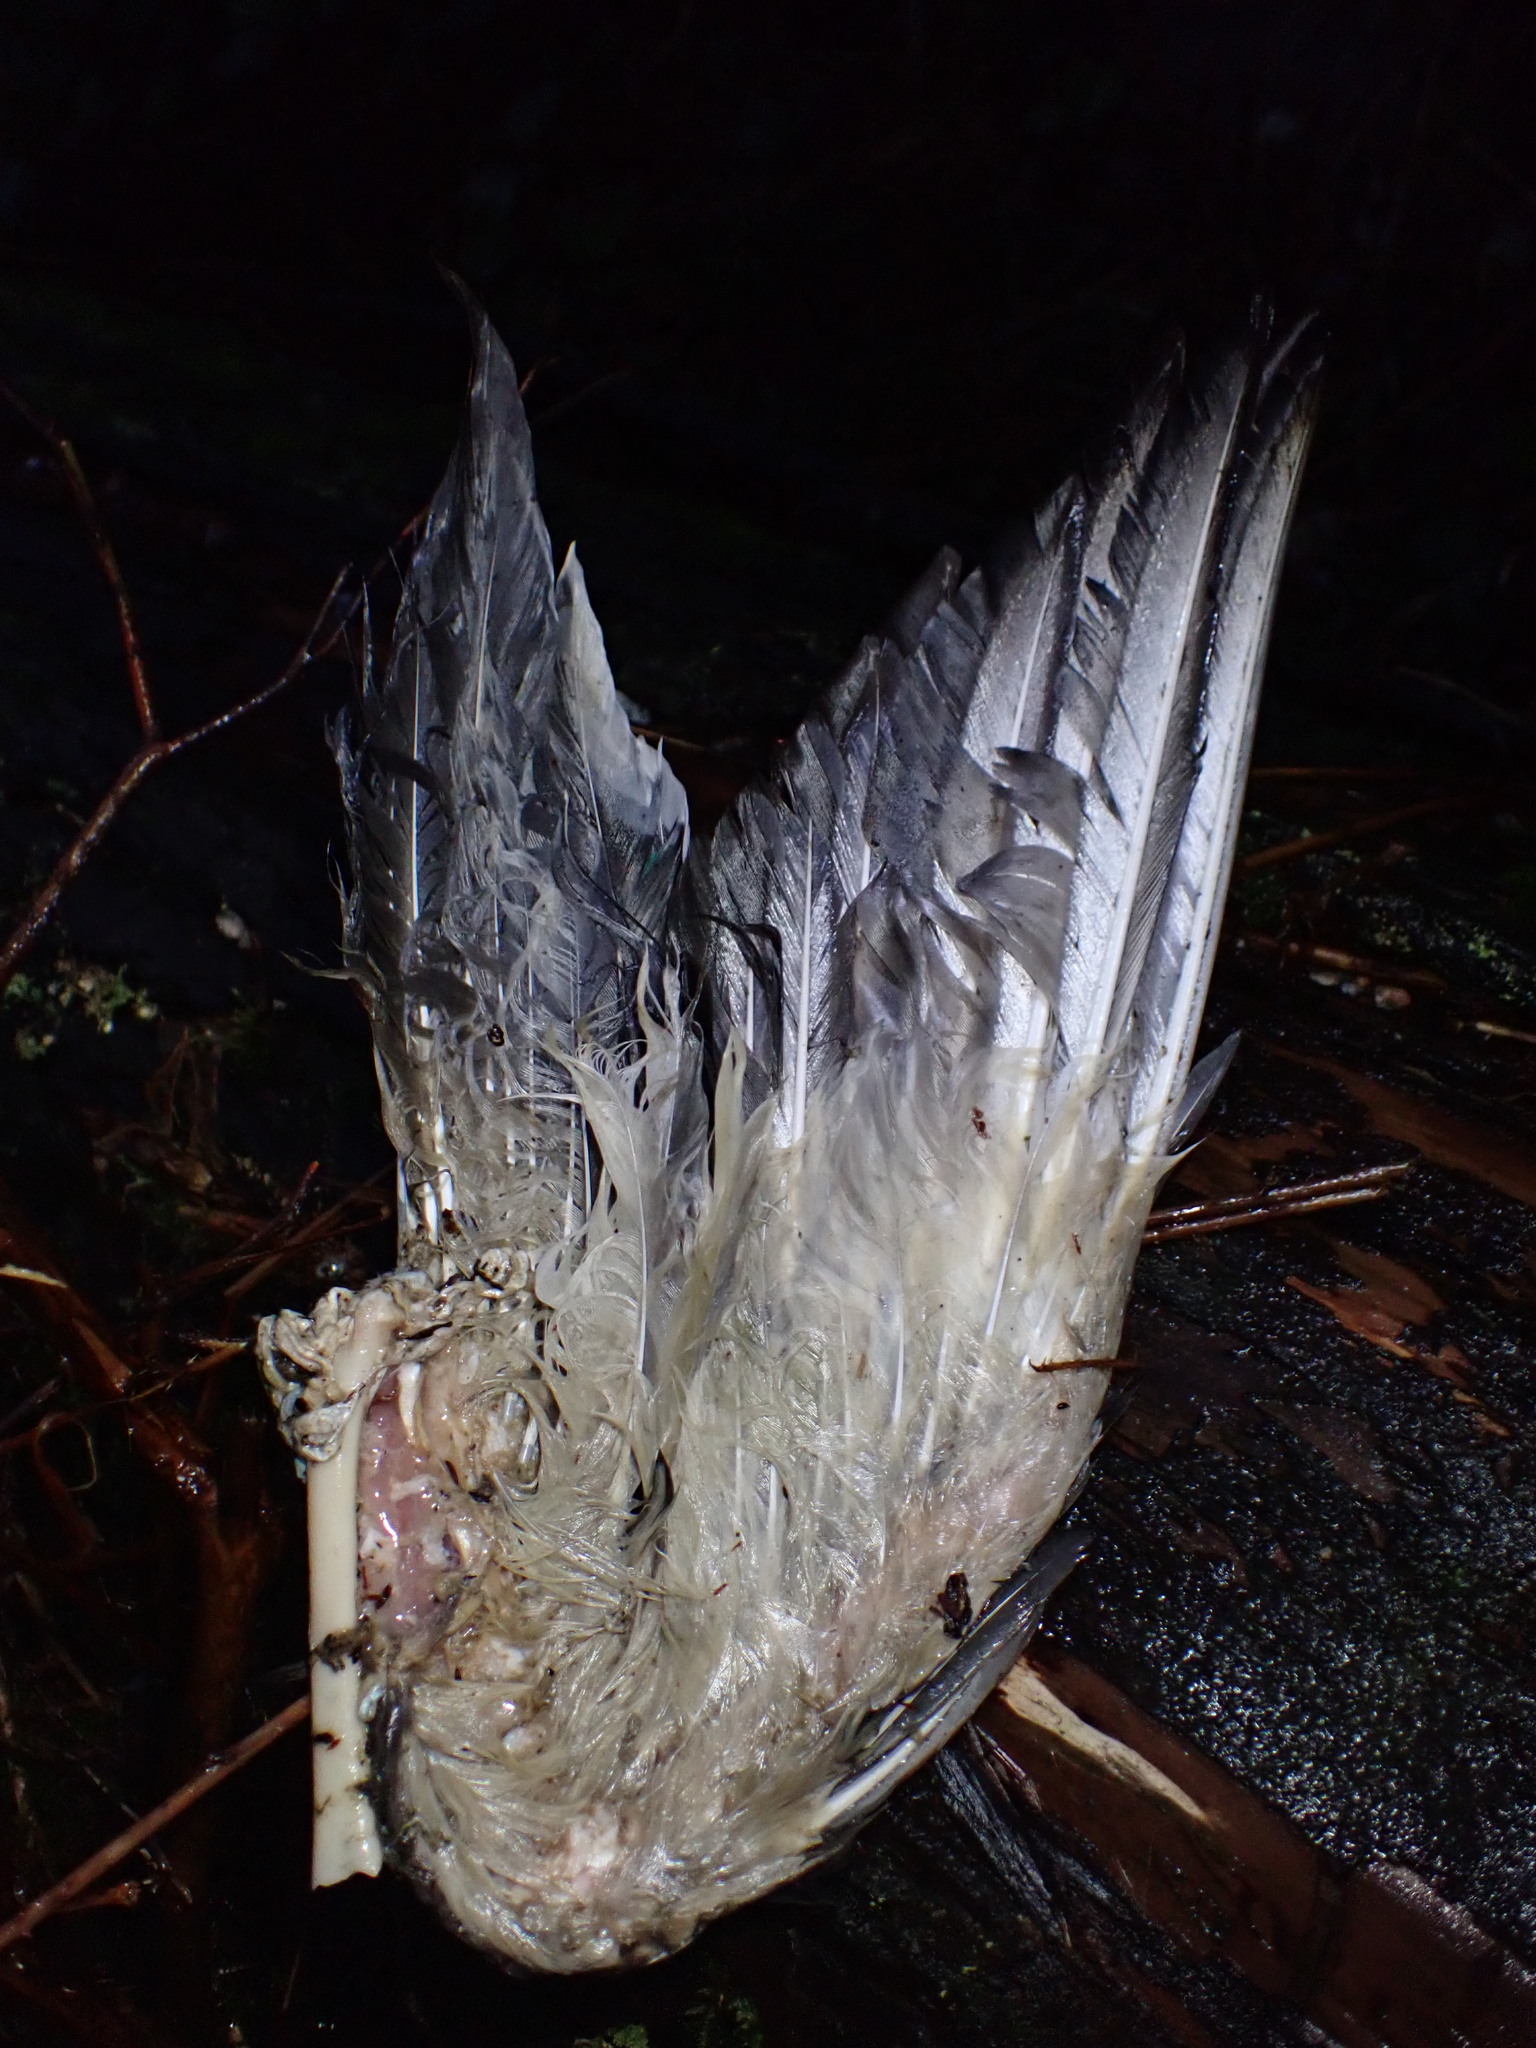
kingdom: Animalia
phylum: Chordata
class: Aves
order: Anseriformes
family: Anatidae
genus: Anas
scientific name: Anas platyrhynchos
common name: Mallard
